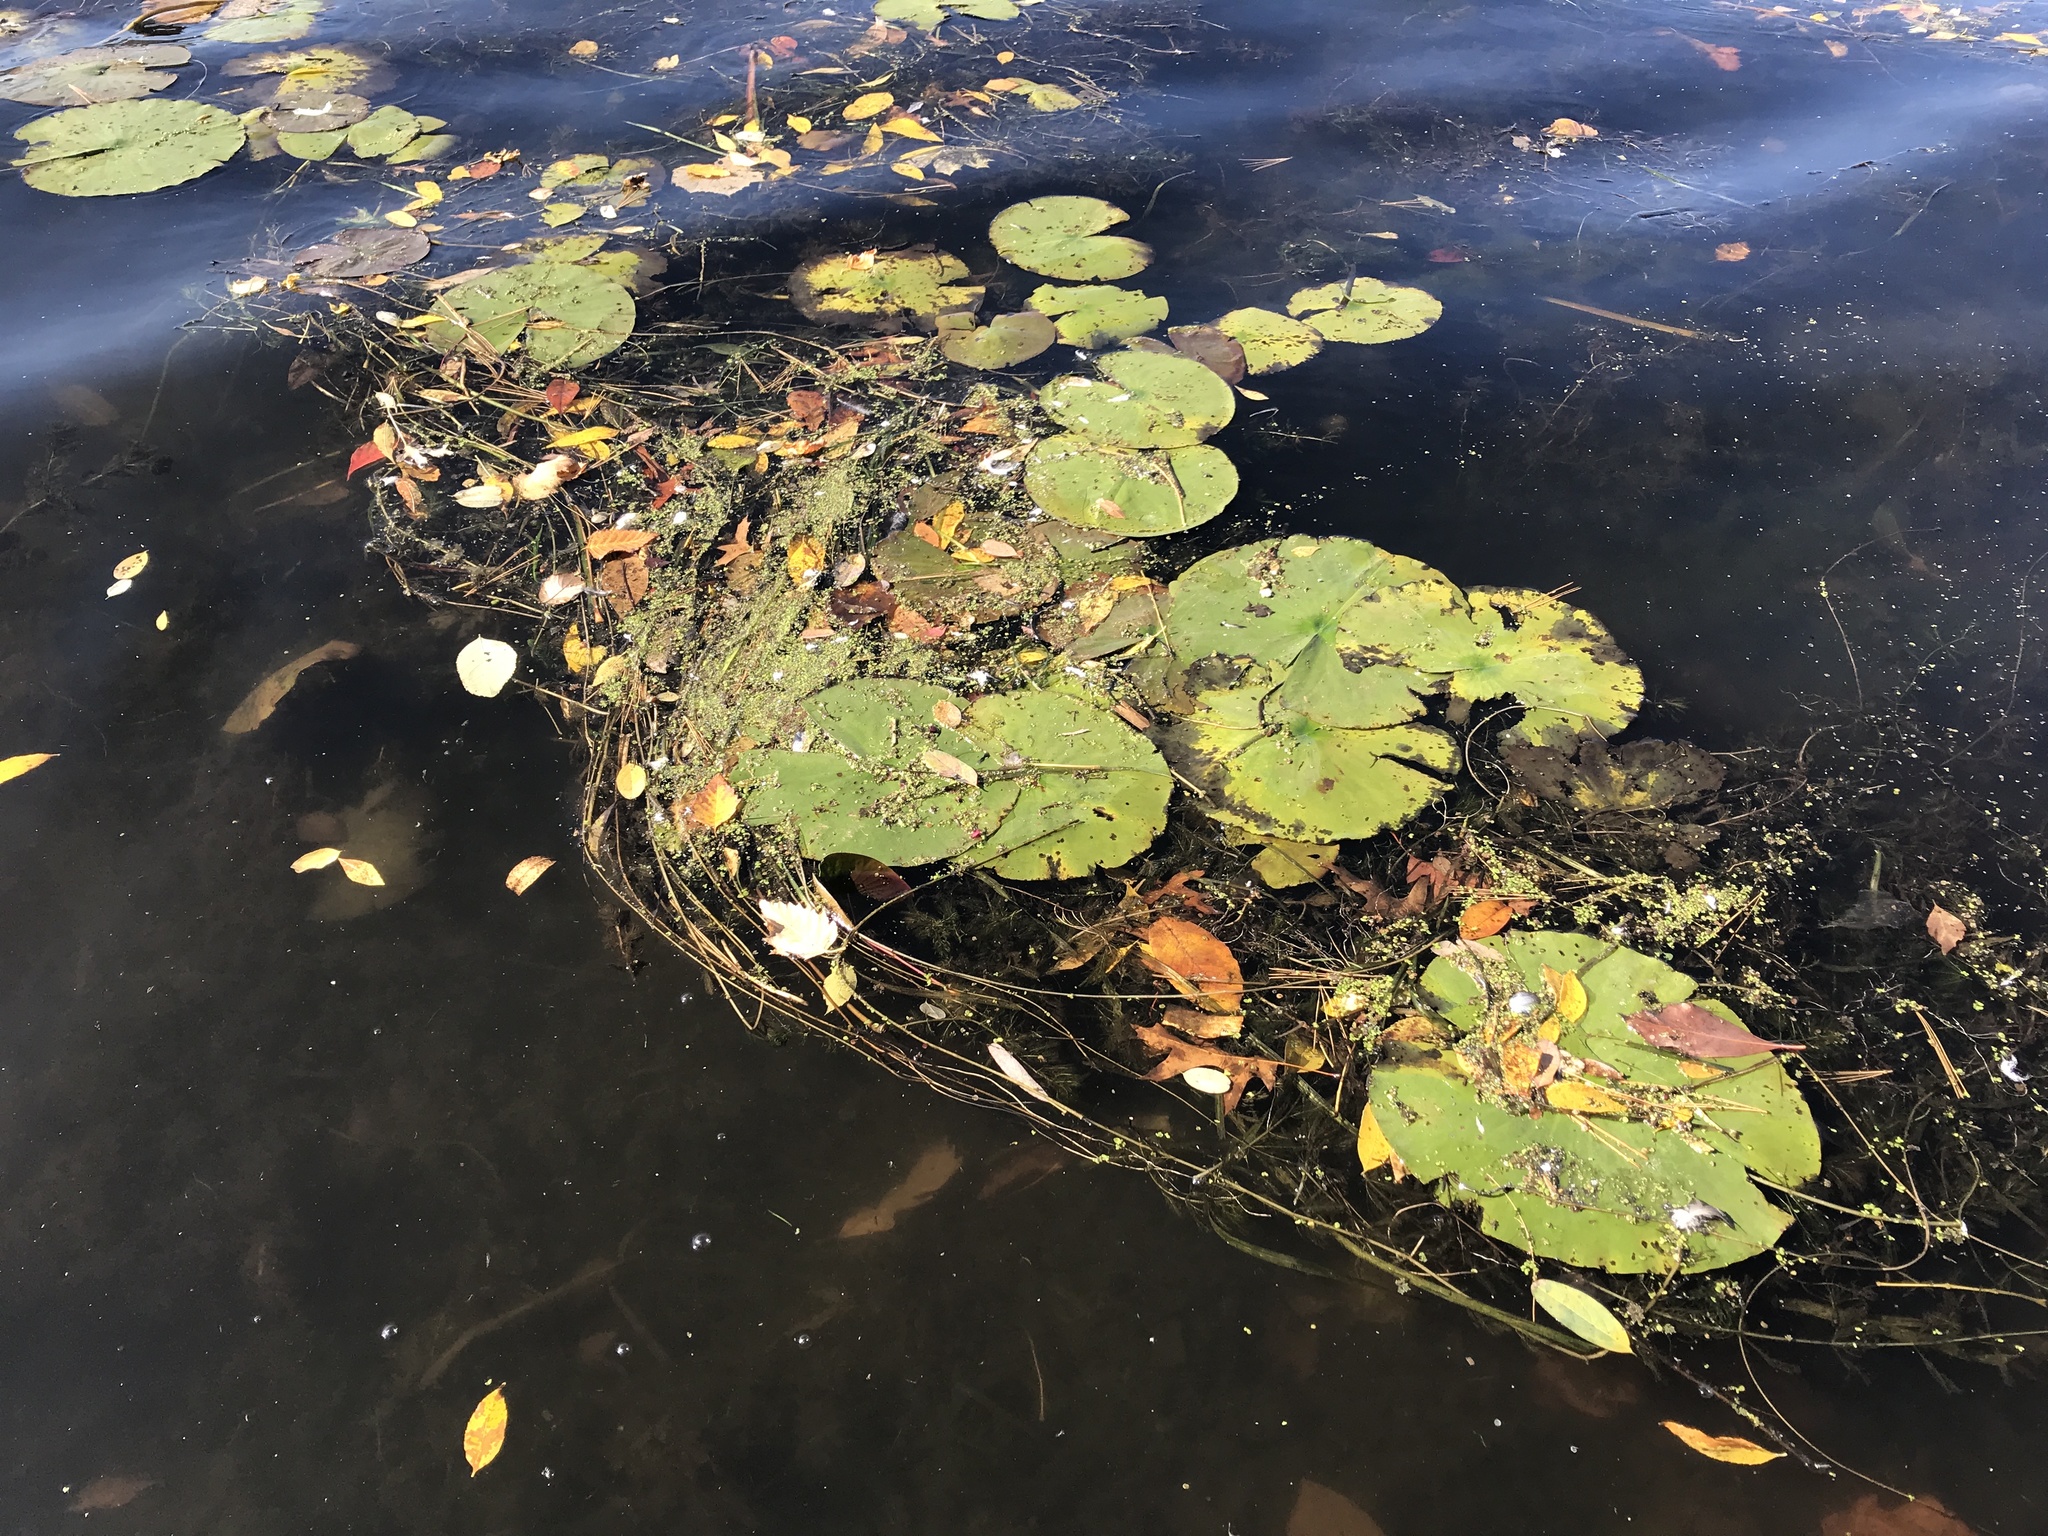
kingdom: Plantae
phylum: Tracheophyta
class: Magnoliopsida
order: Nymphaeales
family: Nymphaeaceae
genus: Nymphaea
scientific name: Nymphaea odorata
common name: Fragrant water-lily
